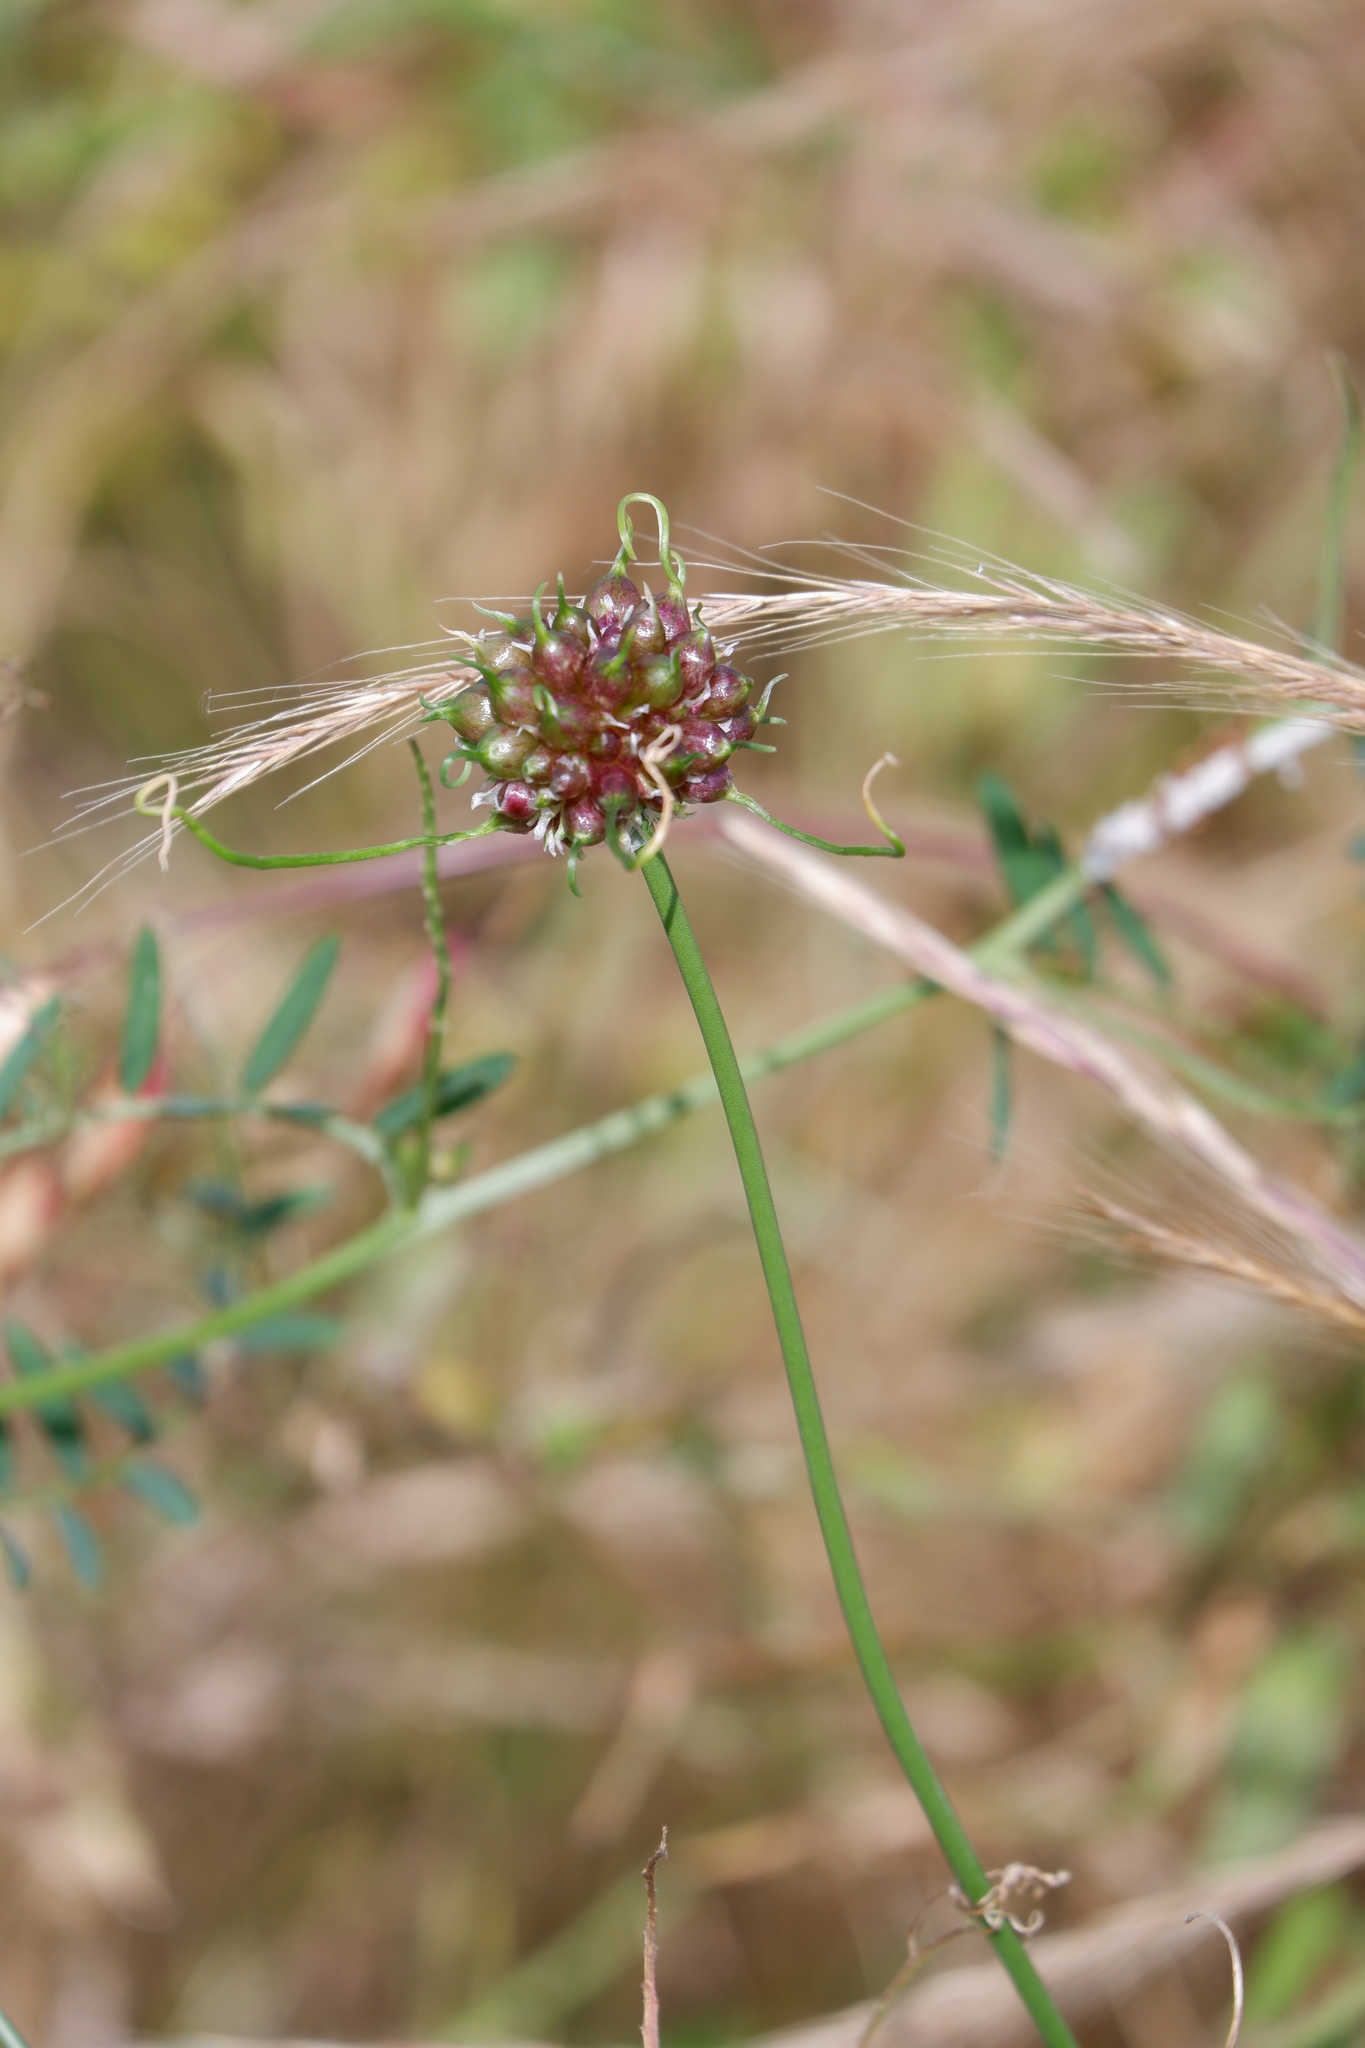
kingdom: Plantae
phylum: Tracheophyta
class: Liliopsida
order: Asparagales
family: Amaryllidaceae
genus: Allium
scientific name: Allium vineale
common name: Crow garlic
